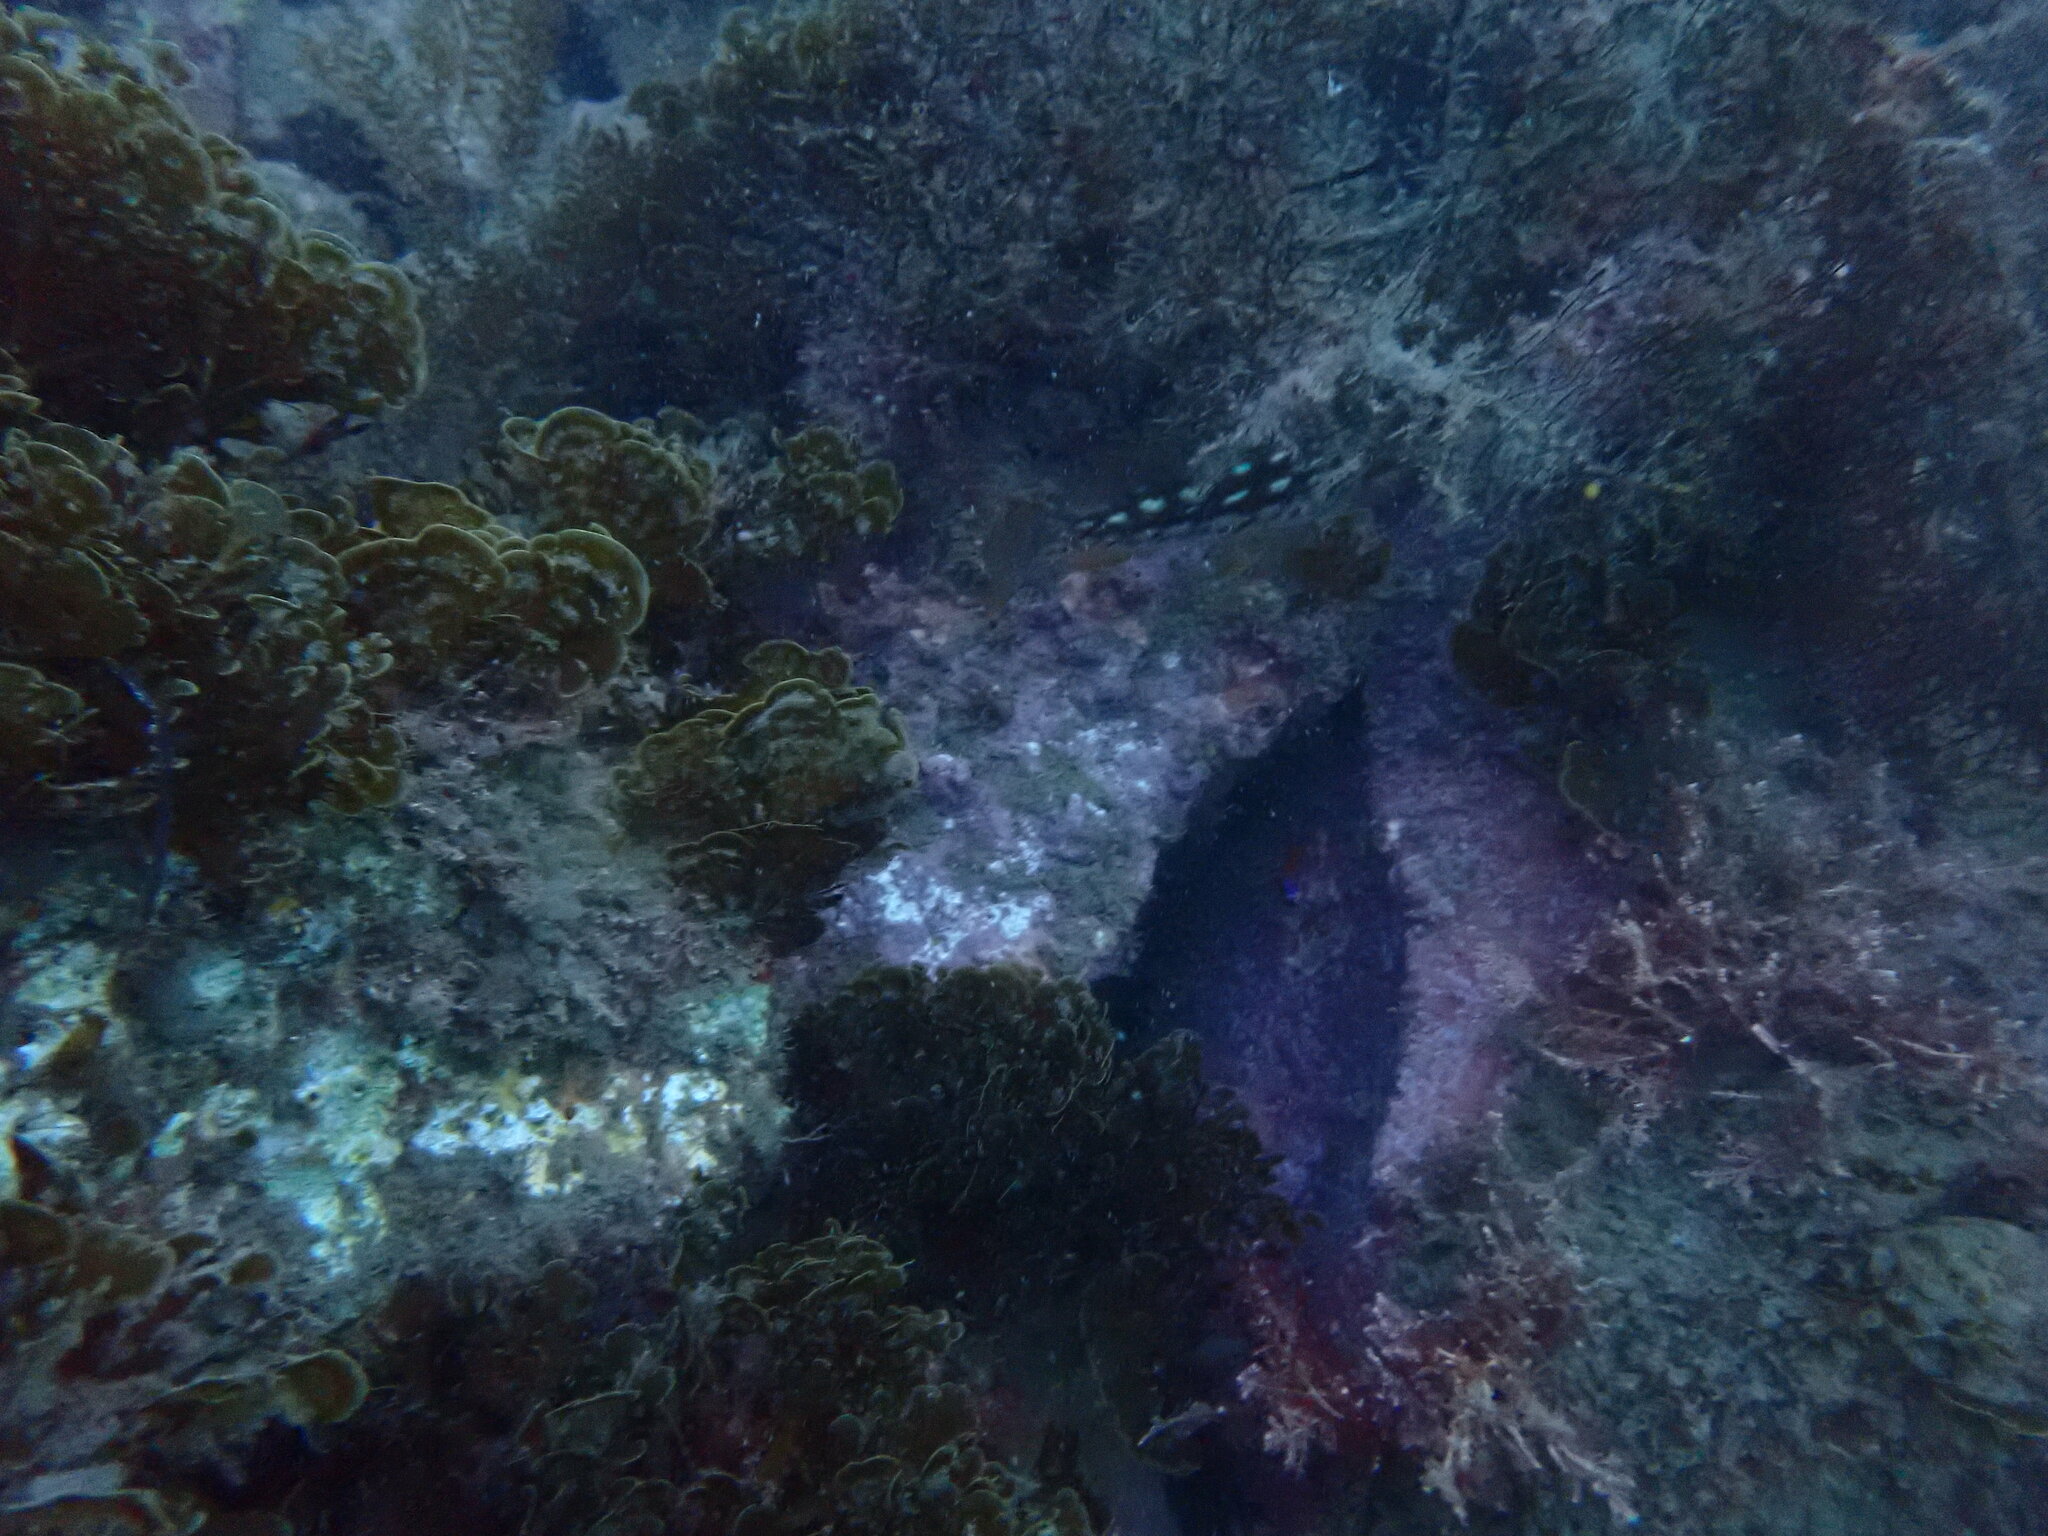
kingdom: Animalia
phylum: Chordata
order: Perciformes
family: Serranidae
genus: Paralabrax
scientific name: Paralabrax clathratus
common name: Kelp bass
